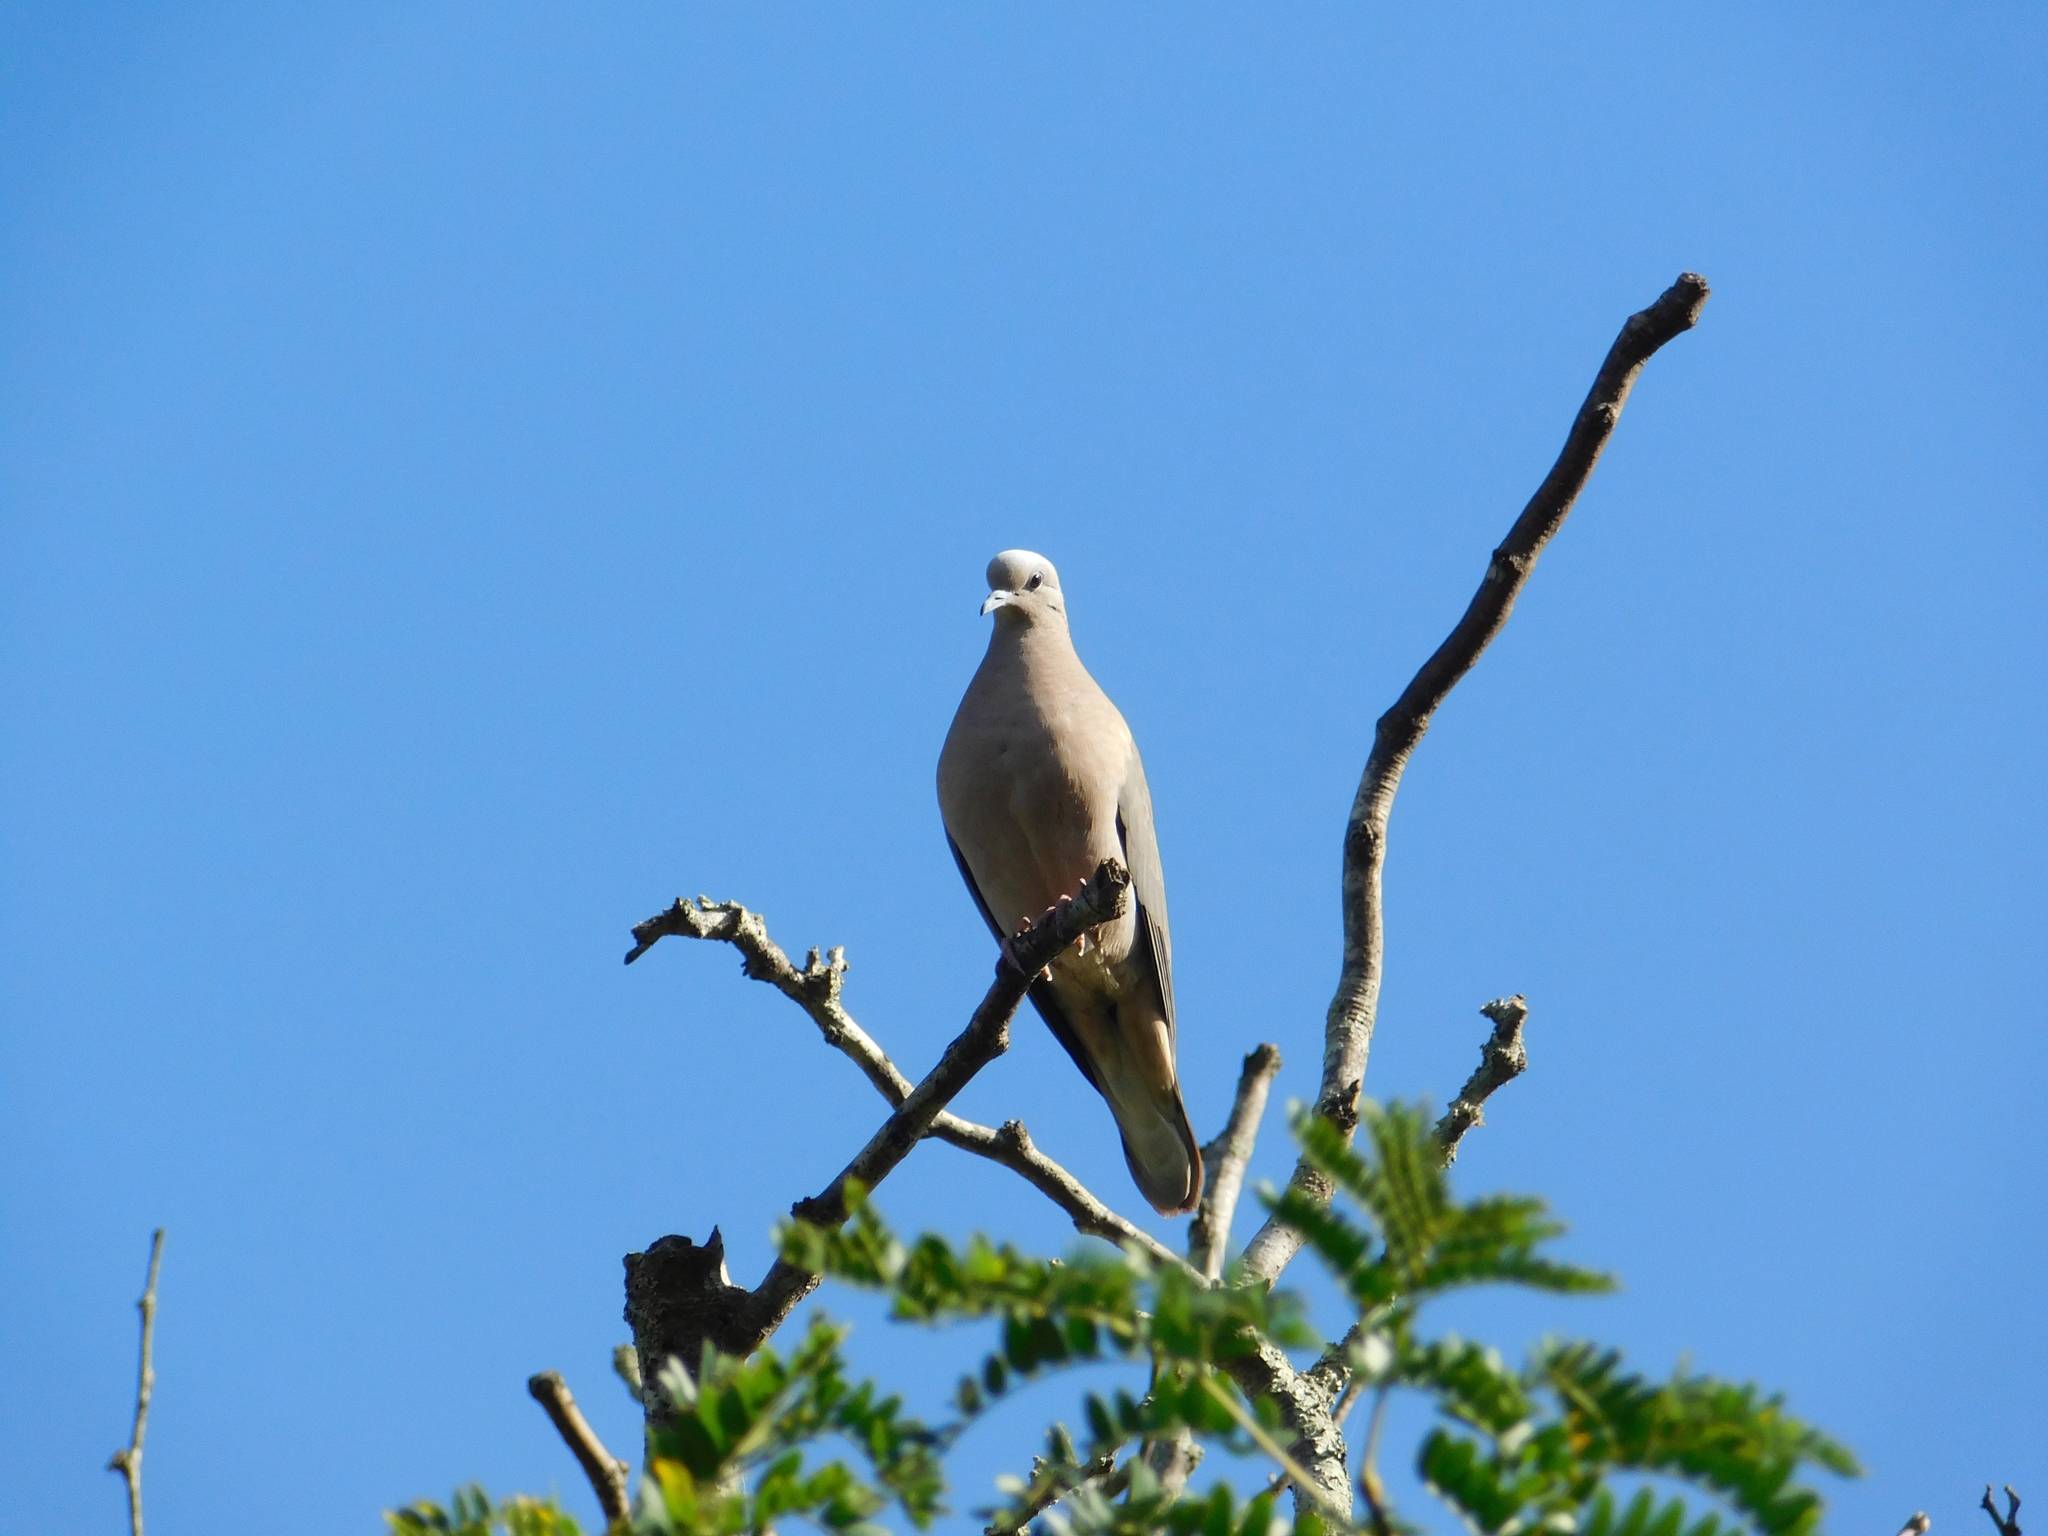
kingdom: Animalia
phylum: Chordata
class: Aves
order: Columbiformes
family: Columbidae
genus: Zenaida
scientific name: Zenaida auriculata
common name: Eared dove
